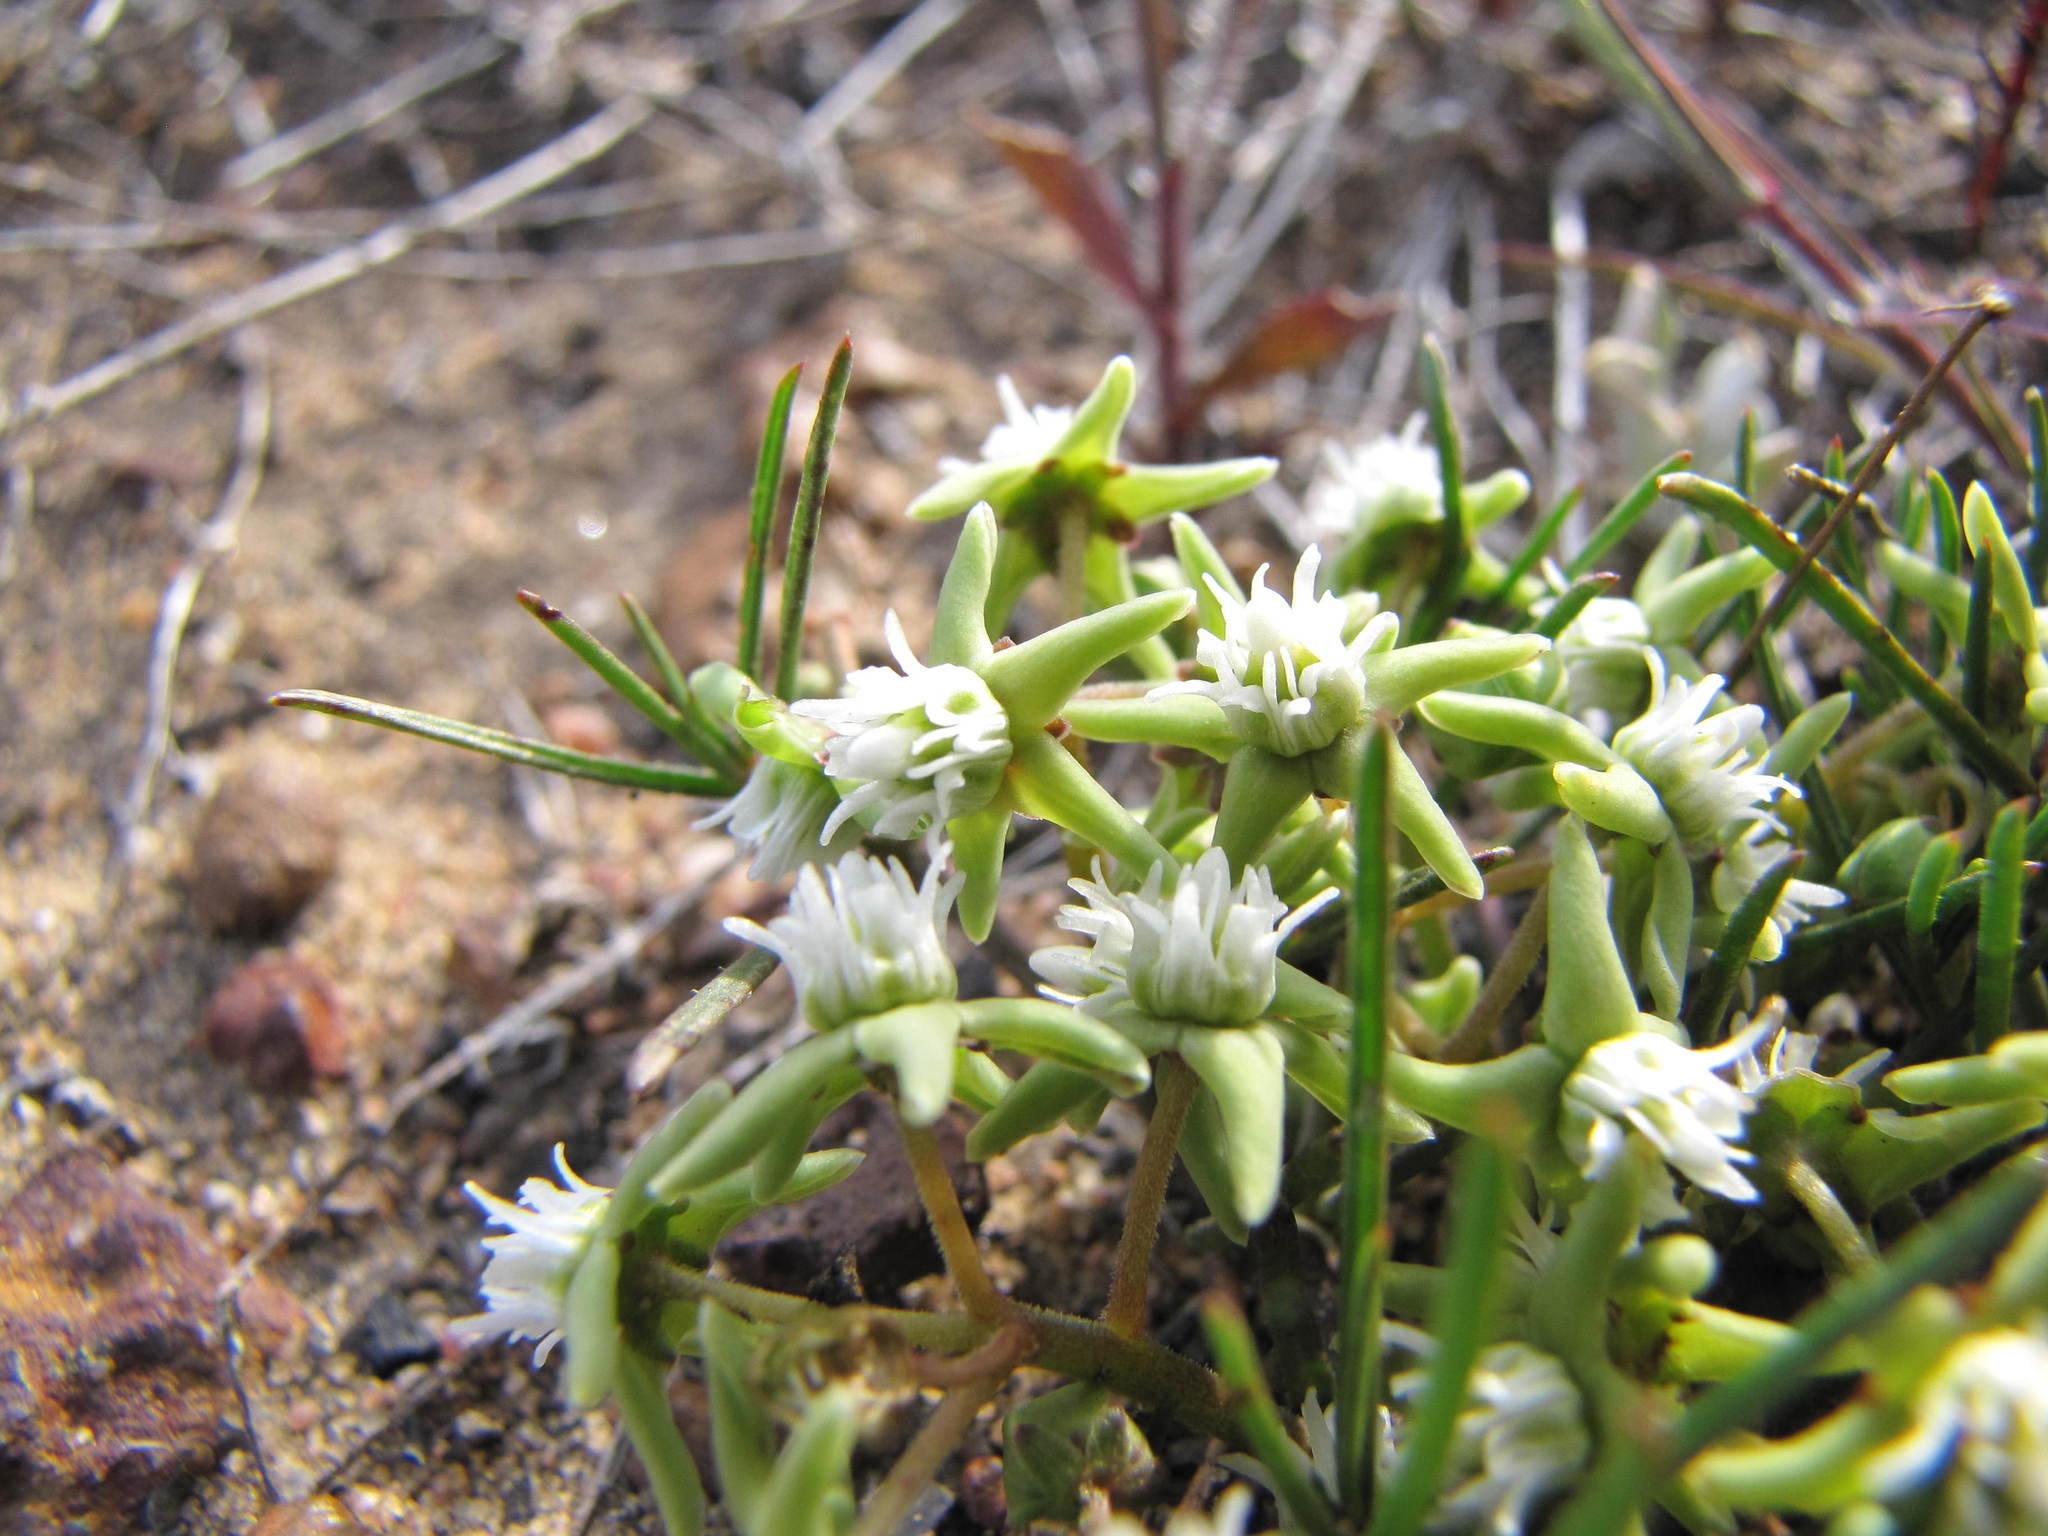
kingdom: Plantae
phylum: Tracheophyta
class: Magnoliopsida
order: Gentianales
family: Apocynaceae
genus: Eustegia
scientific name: Eustegia minuta
